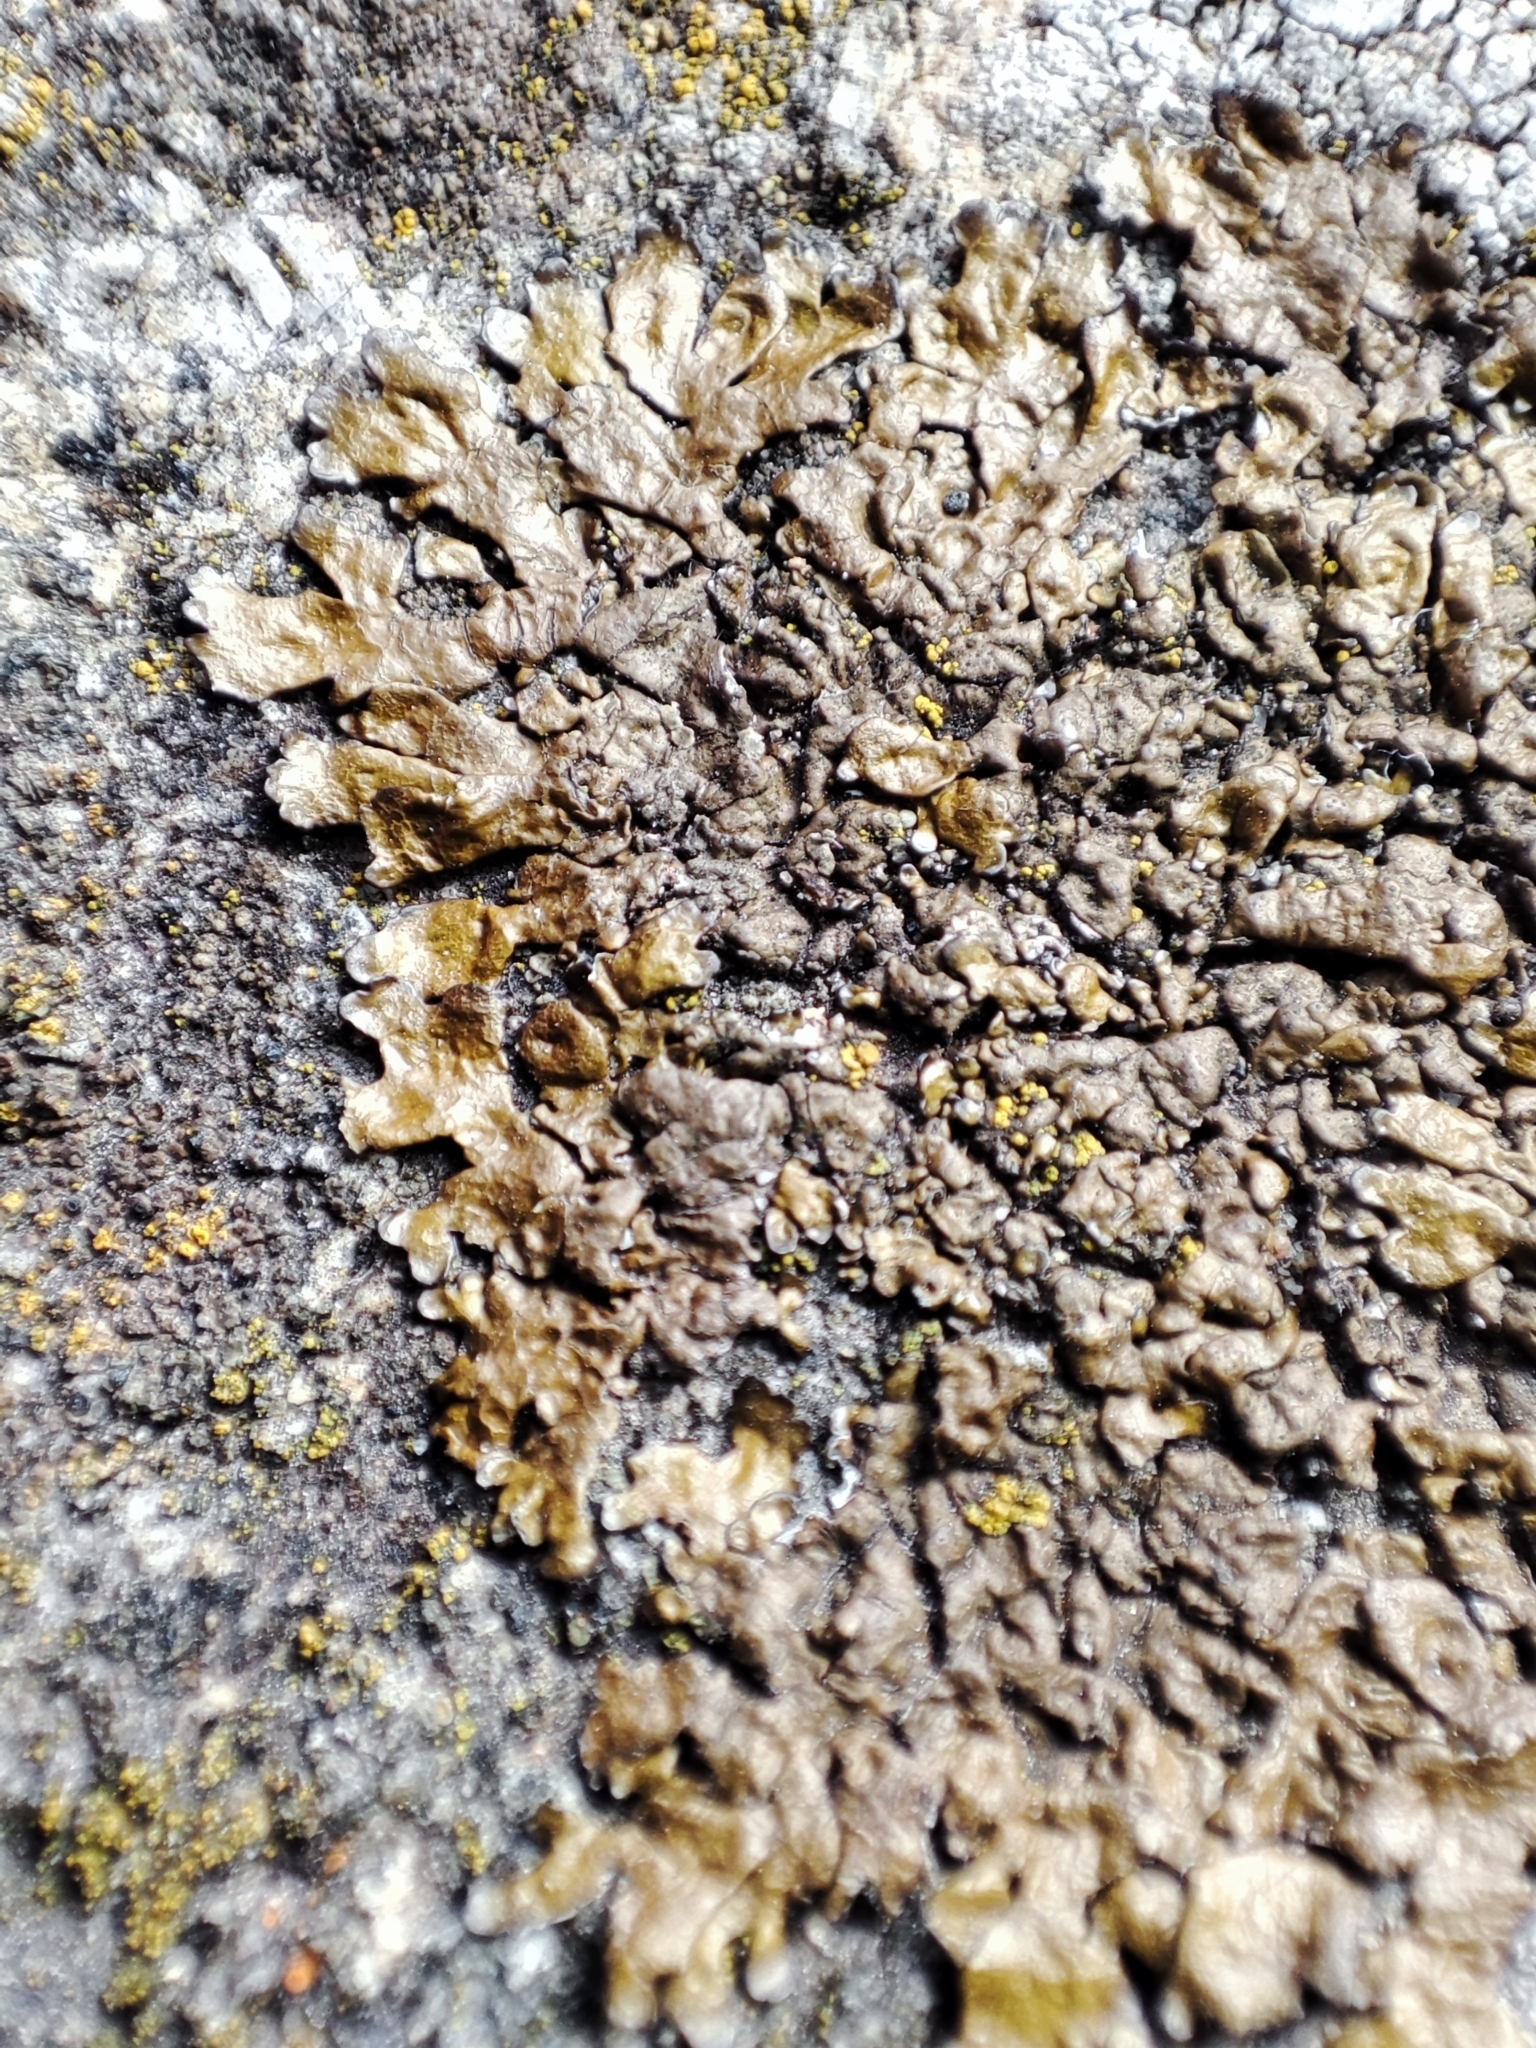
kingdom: Fungi
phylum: Ascomycota
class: Lecanoromycetes
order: Lecanorales
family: Parmeliaceae
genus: Xanthoparmelia
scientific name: Xanthoparmelia pulla
